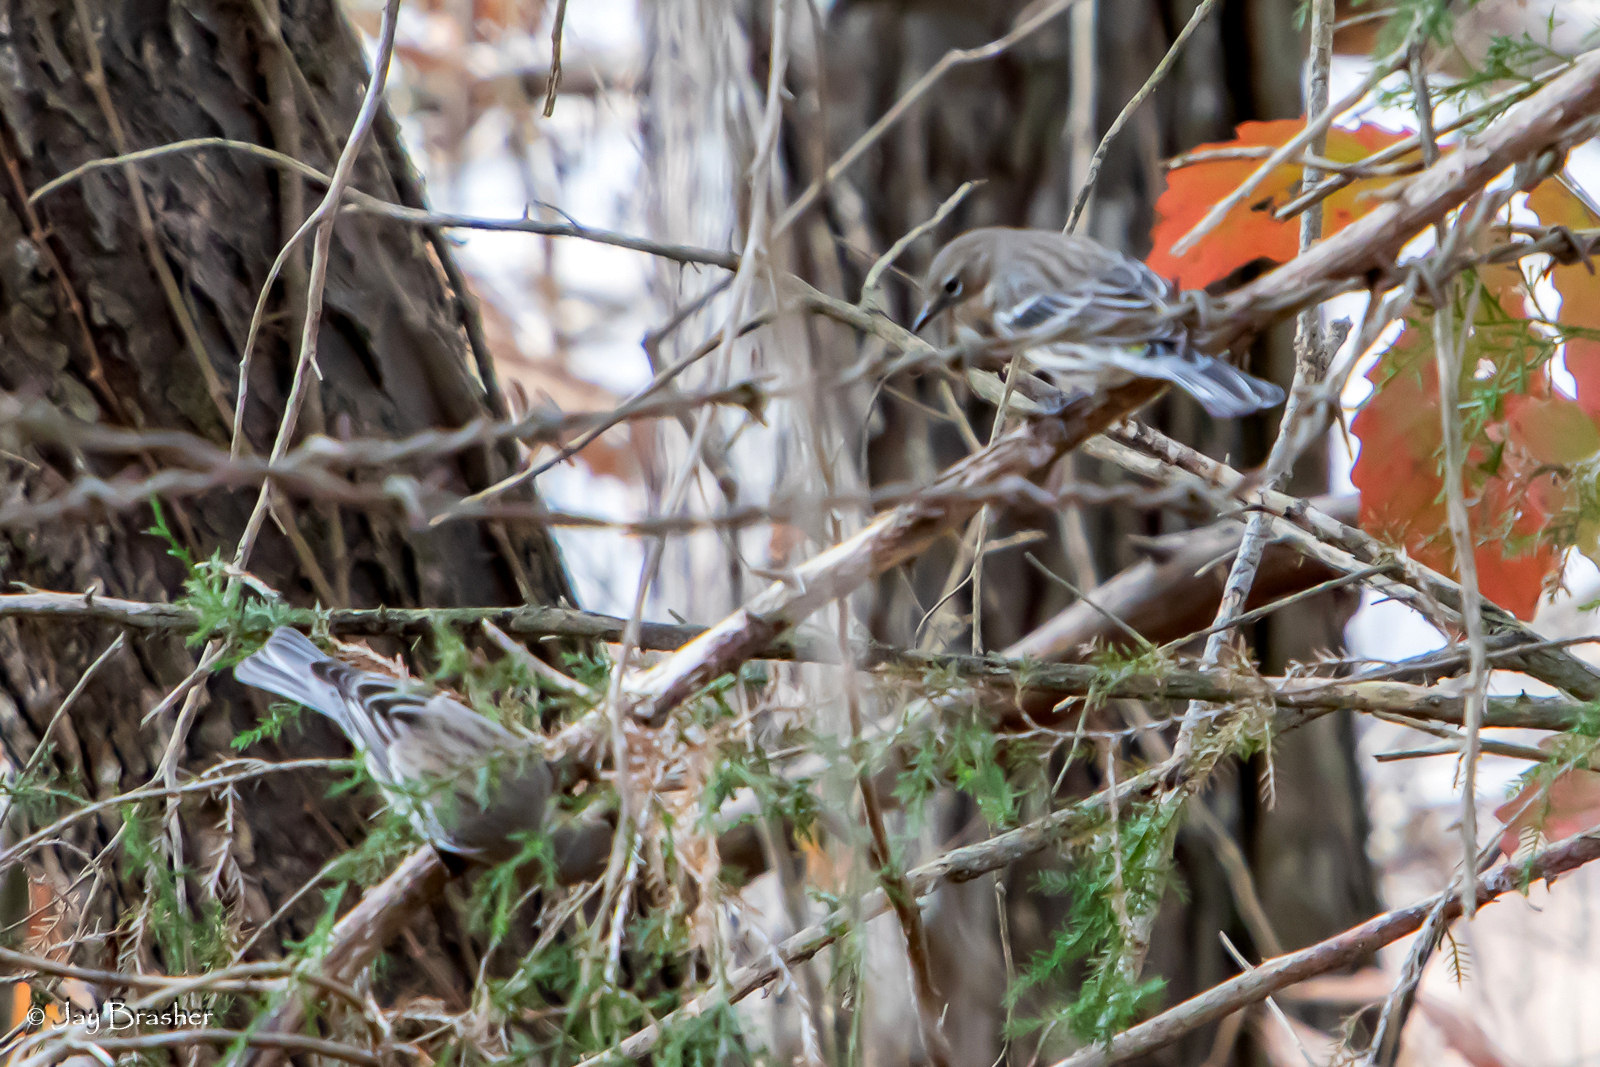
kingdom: Animalia
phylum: Chordata
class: Aves
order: Passeriformes
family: Parulidae
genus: Setophaga
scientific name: Setophaga coronata
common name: Myrtle warbler
